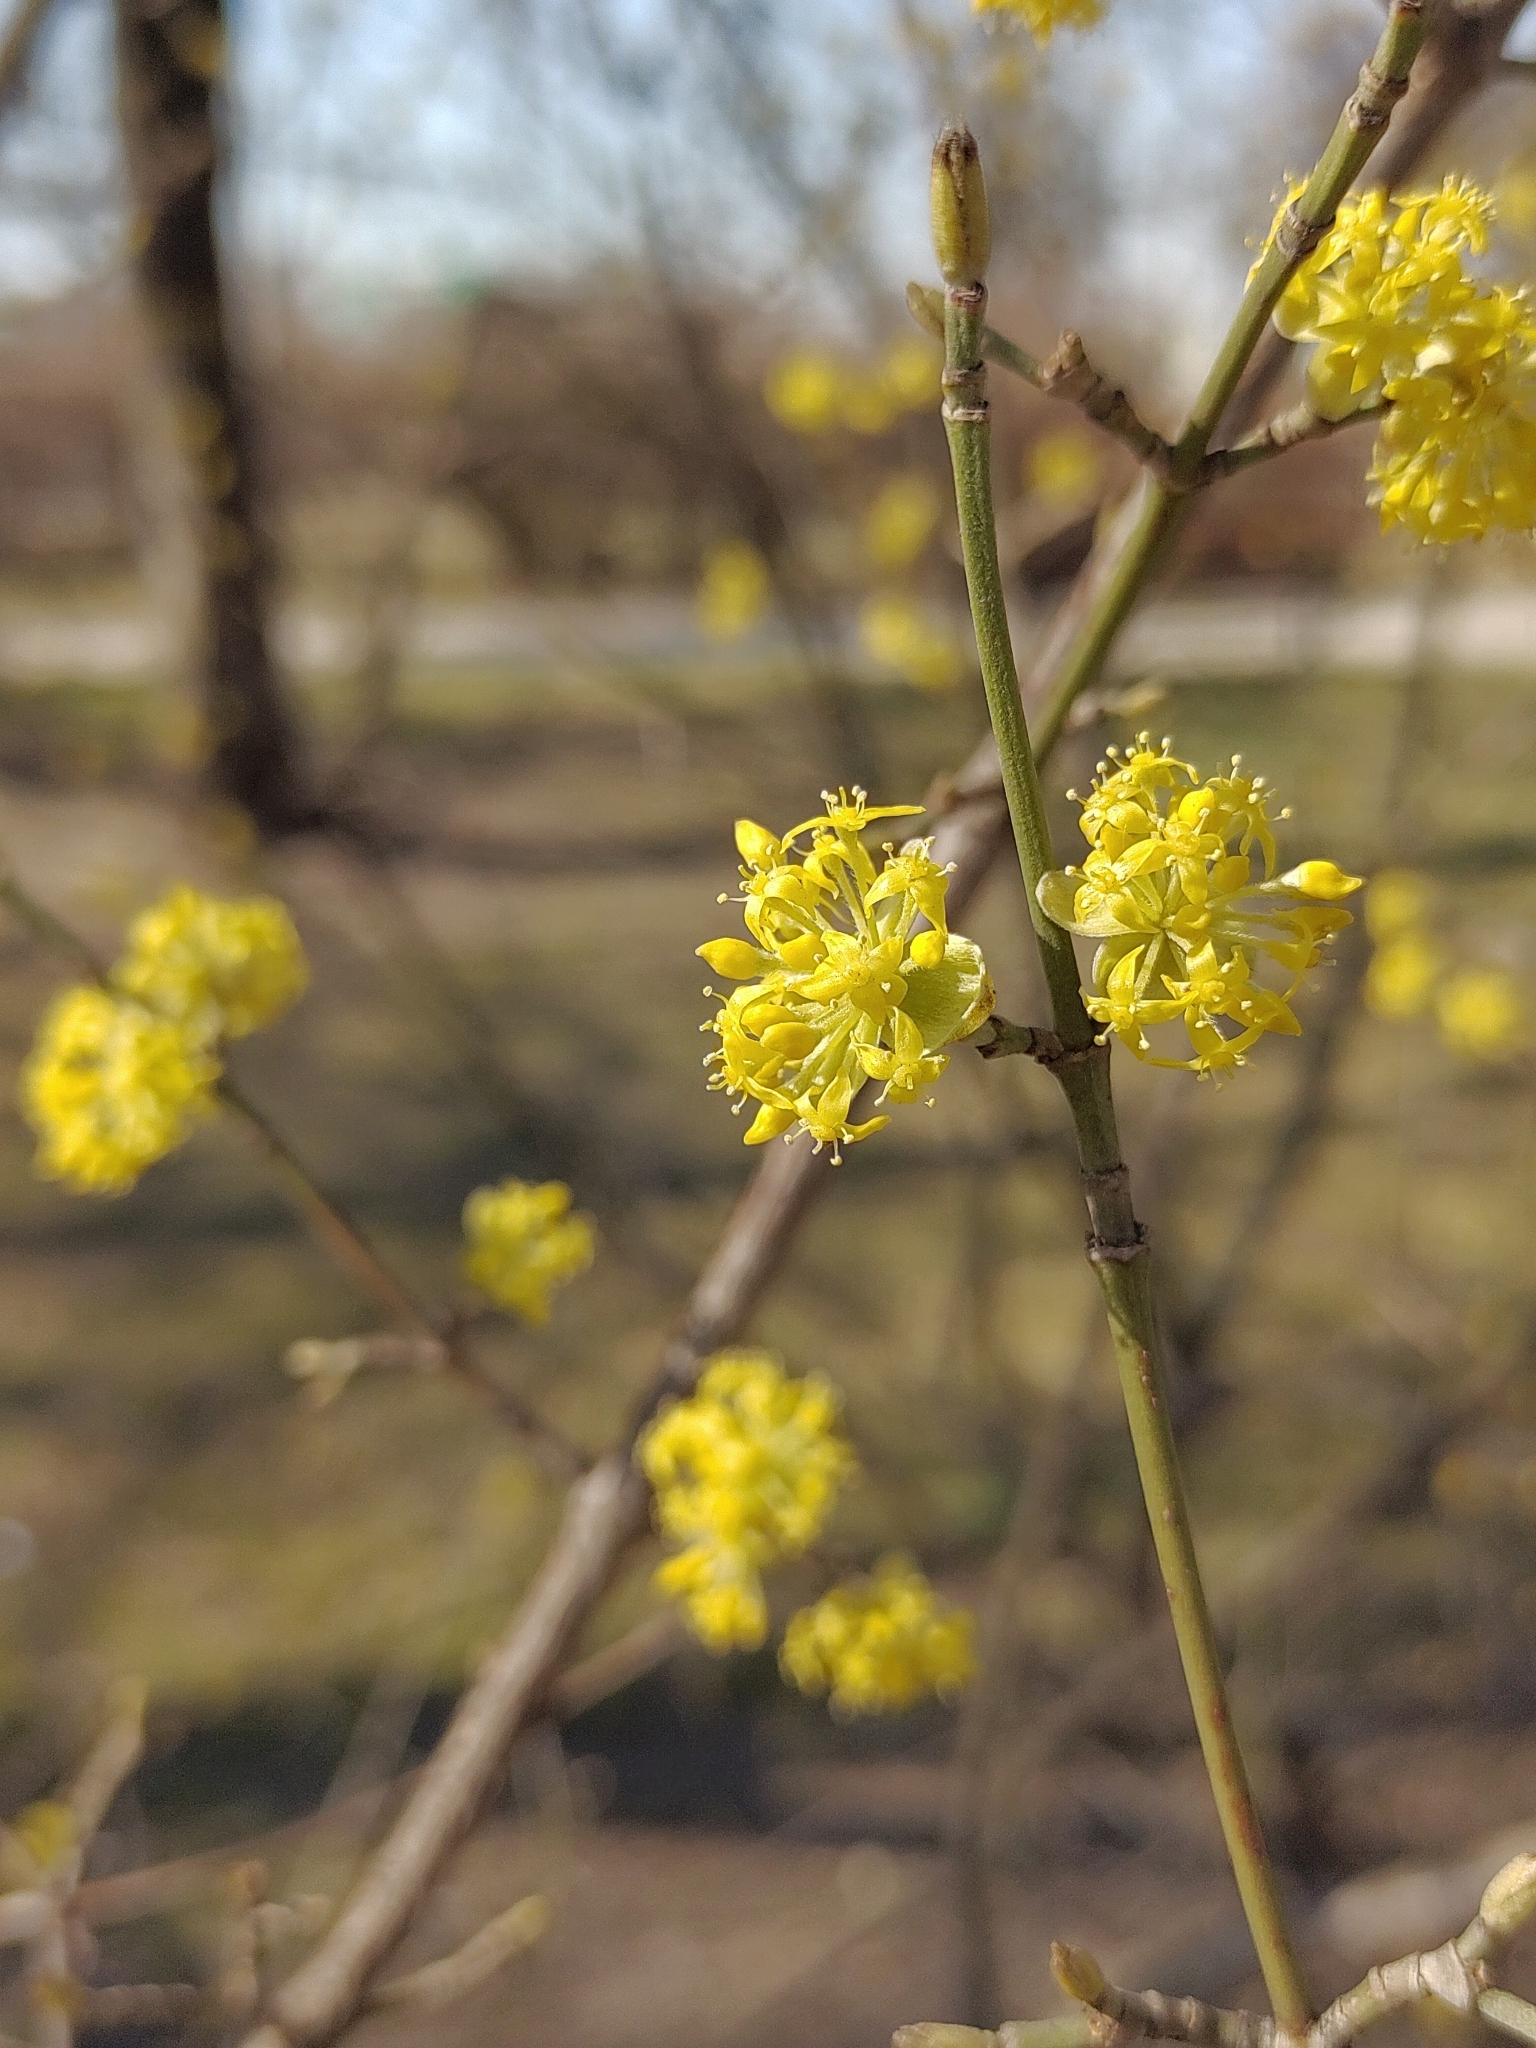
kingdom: Plantae
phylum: Tracheophyta
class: Magnoliopsida
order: Cornales
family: Cornaceae
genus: Cornus
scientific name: Cornus mas
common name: Cornelian-cherry
